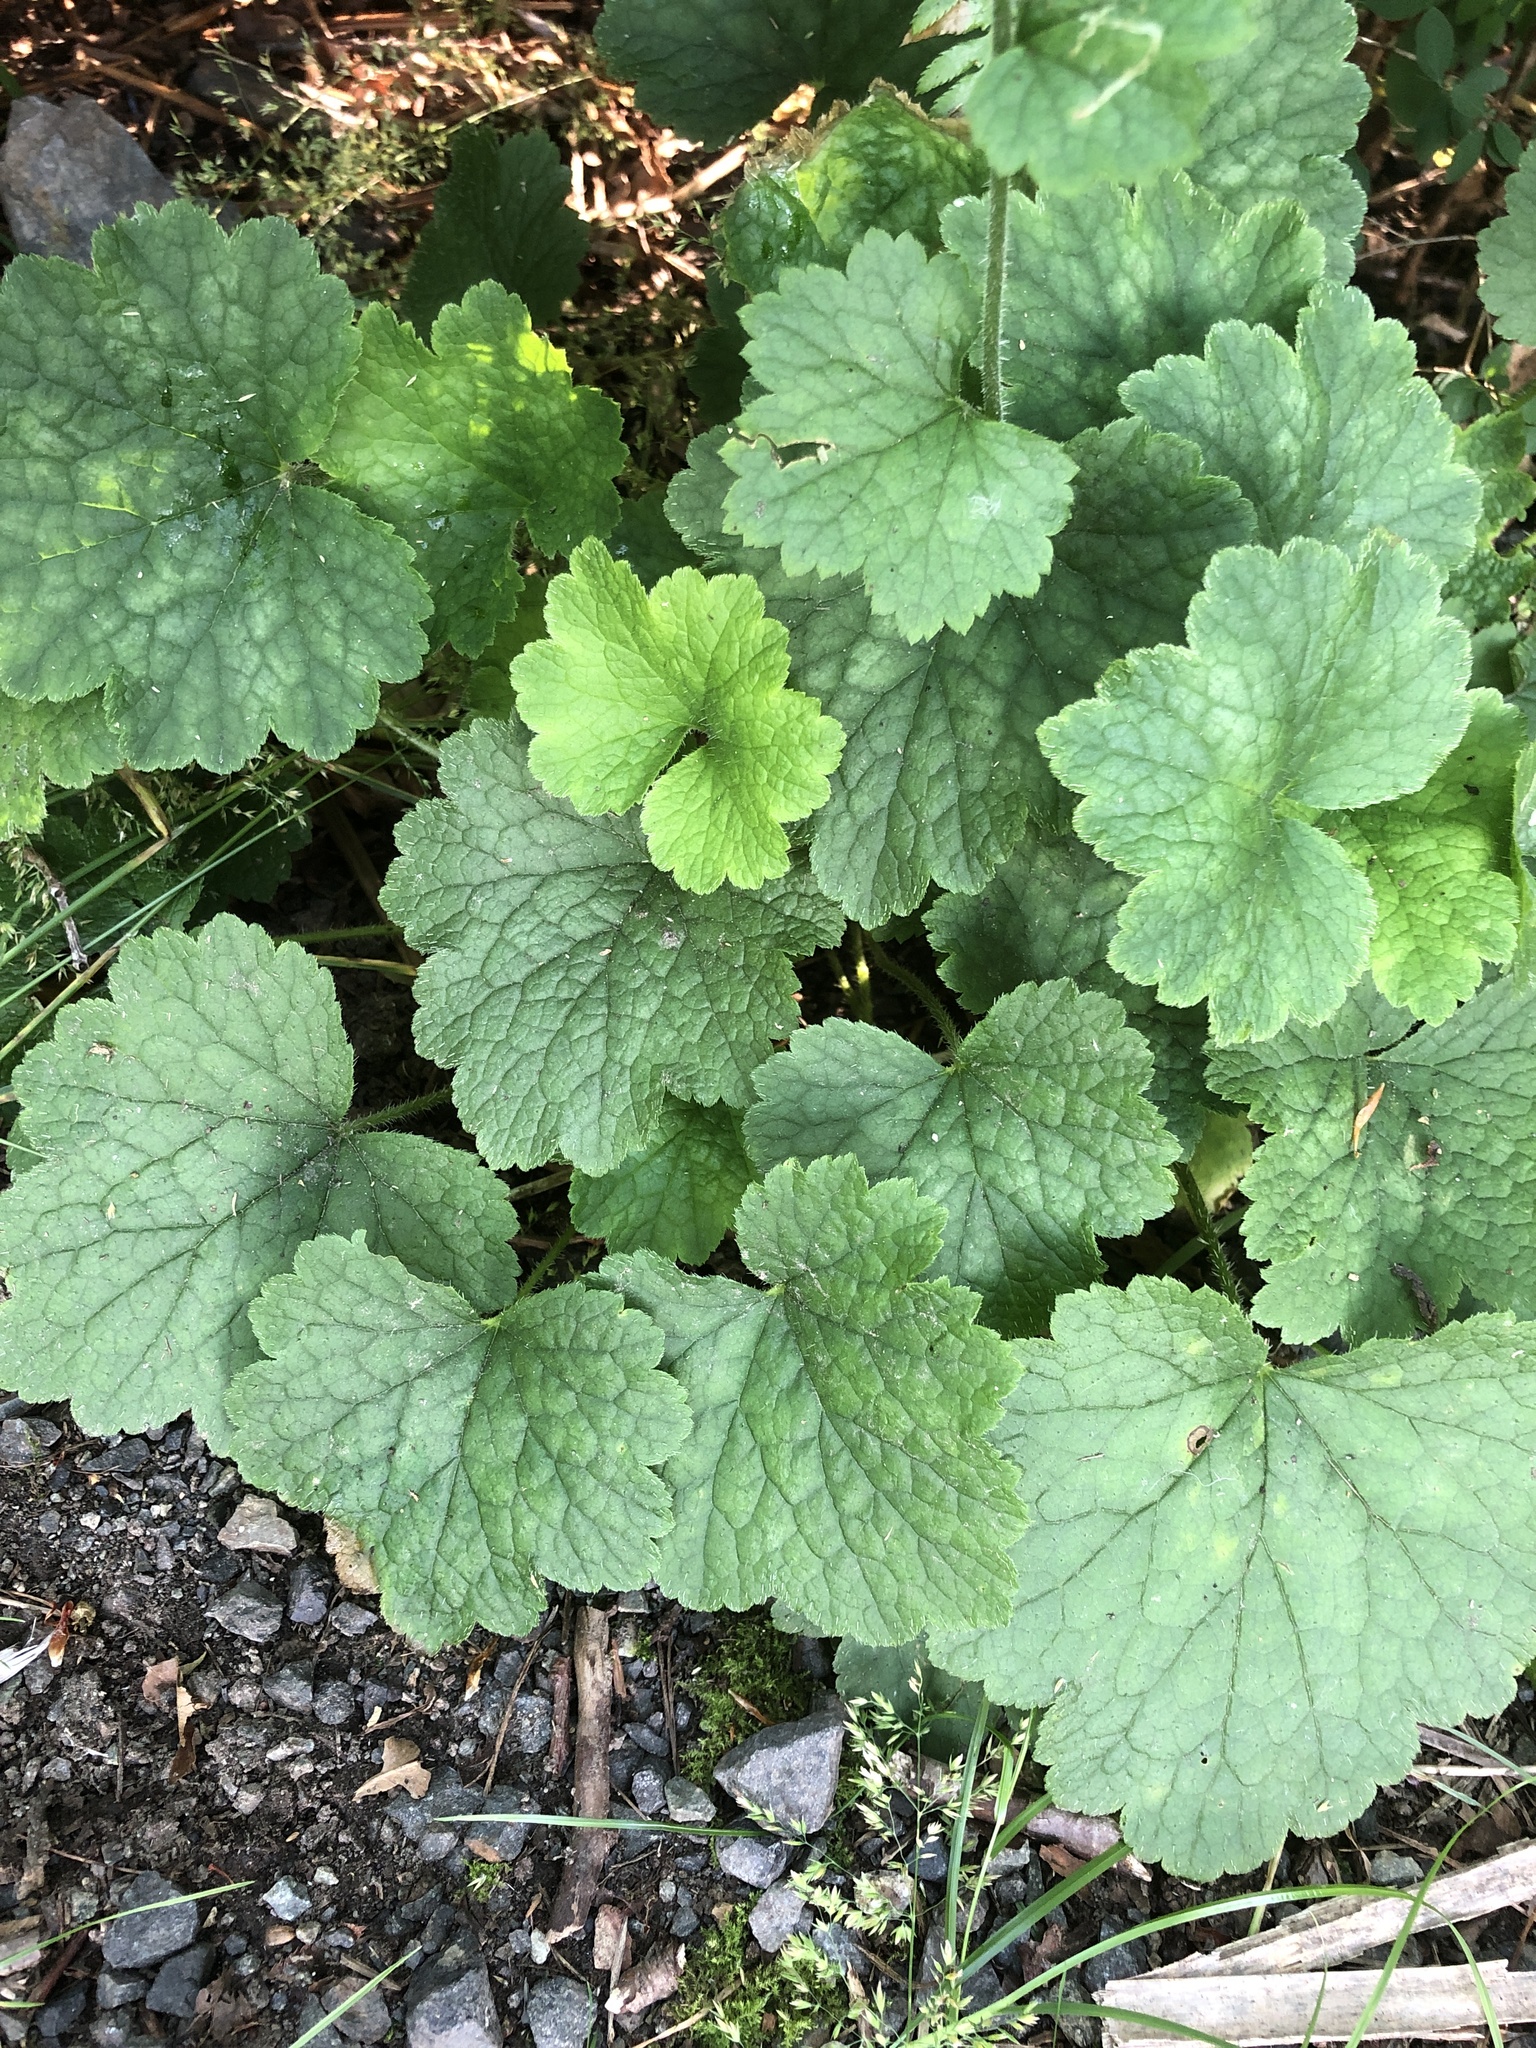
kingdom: Plantae
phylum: Tracheophyta
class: Magnoliopsida
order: Saxifragales
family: Saxifragaceae
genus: Tellima
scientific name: Tellima grandiflora
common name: Fringecups
